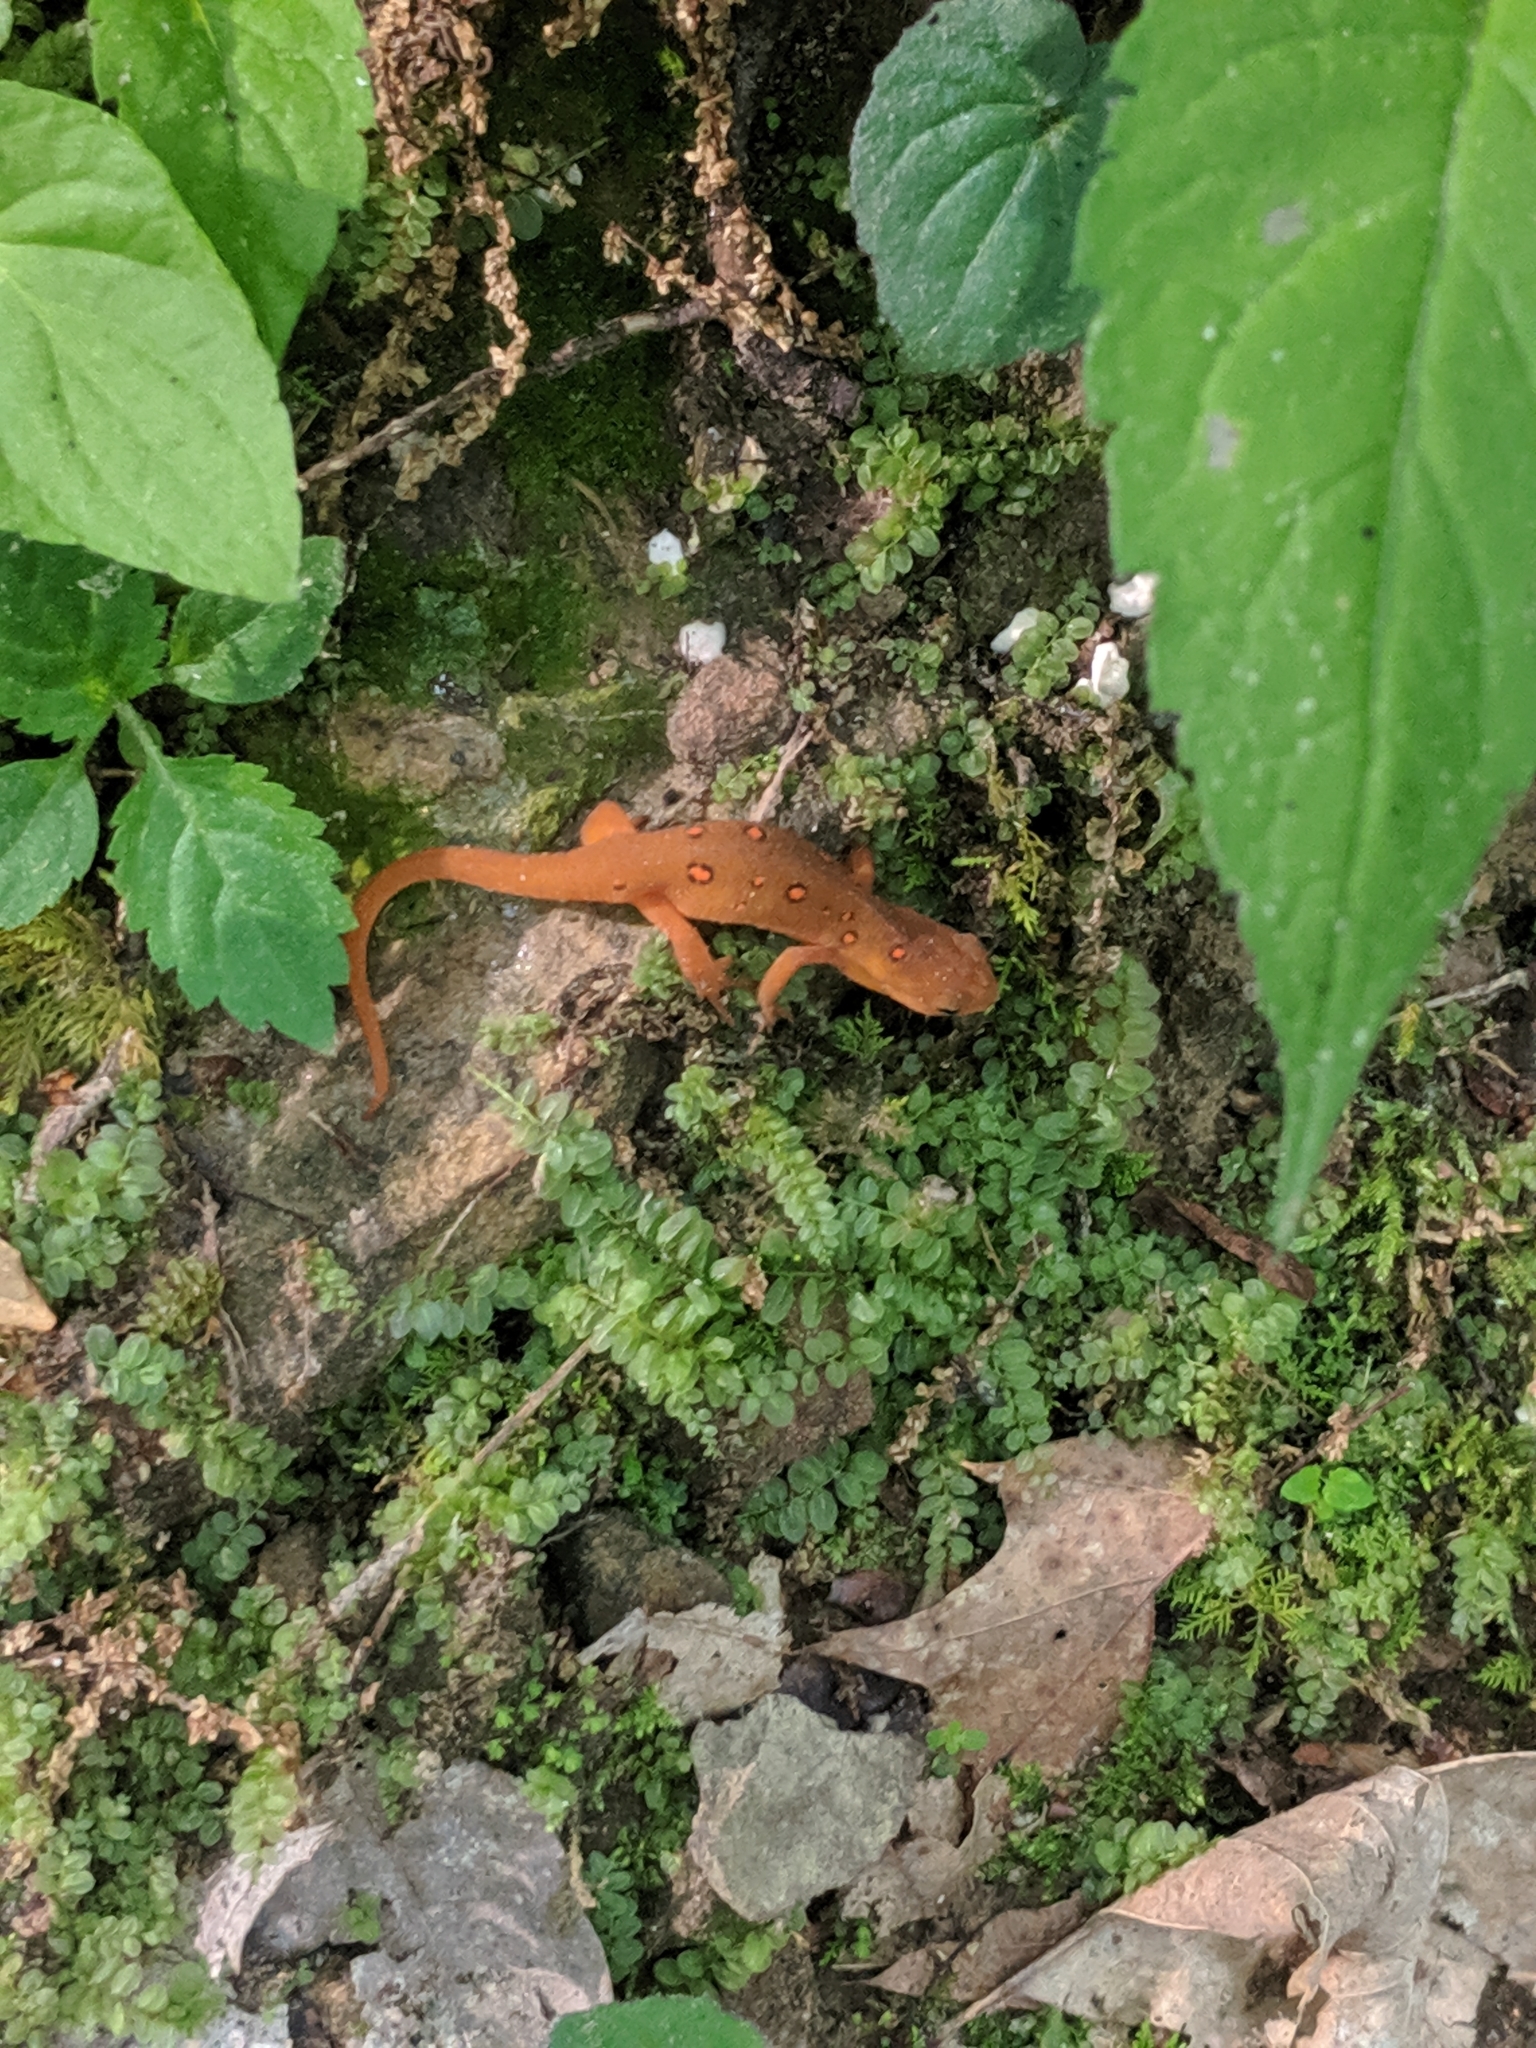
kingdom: Animalia
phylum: Chordata
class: Amphibia
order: Caudata
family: Salamandridae
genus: Notophthalmus
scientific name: Notophthalmus viridescens
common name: Eastern newt
